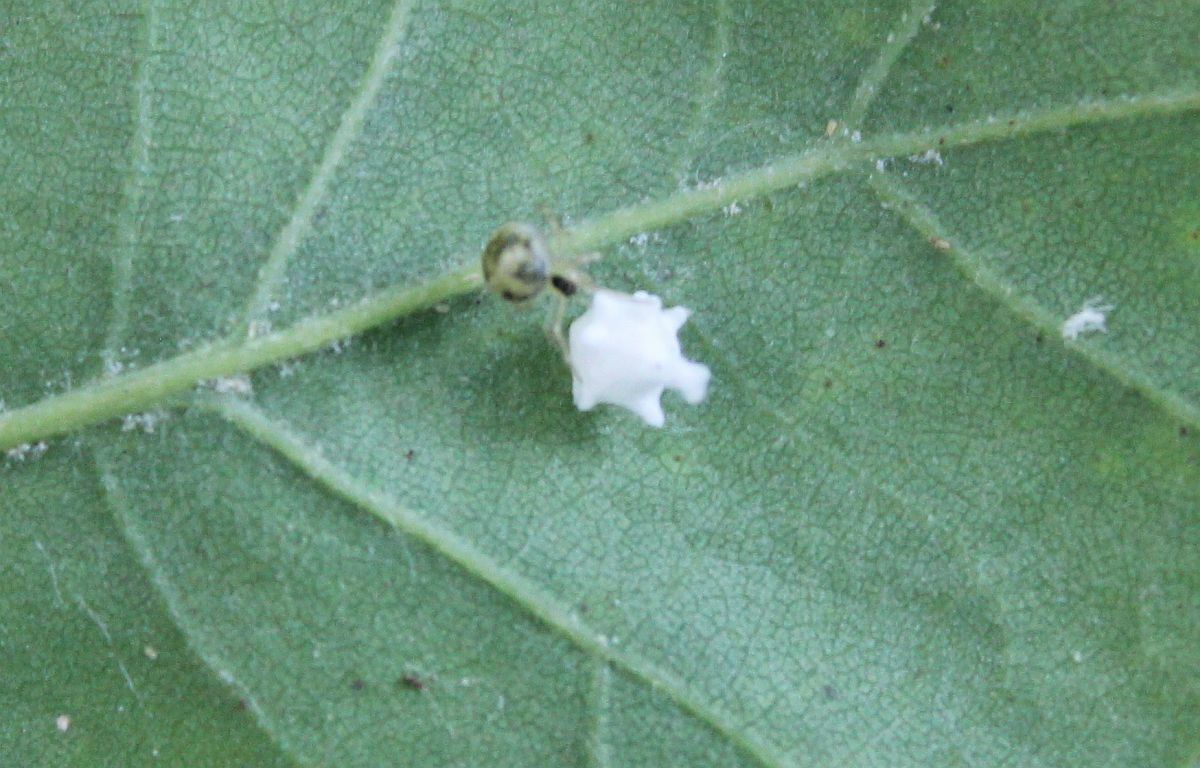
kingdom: Animalia
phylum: Arthropoda
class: Arachnida
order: Araneae
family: Theridiidae
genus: Paidiscura
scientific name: Paidiscura pallens
